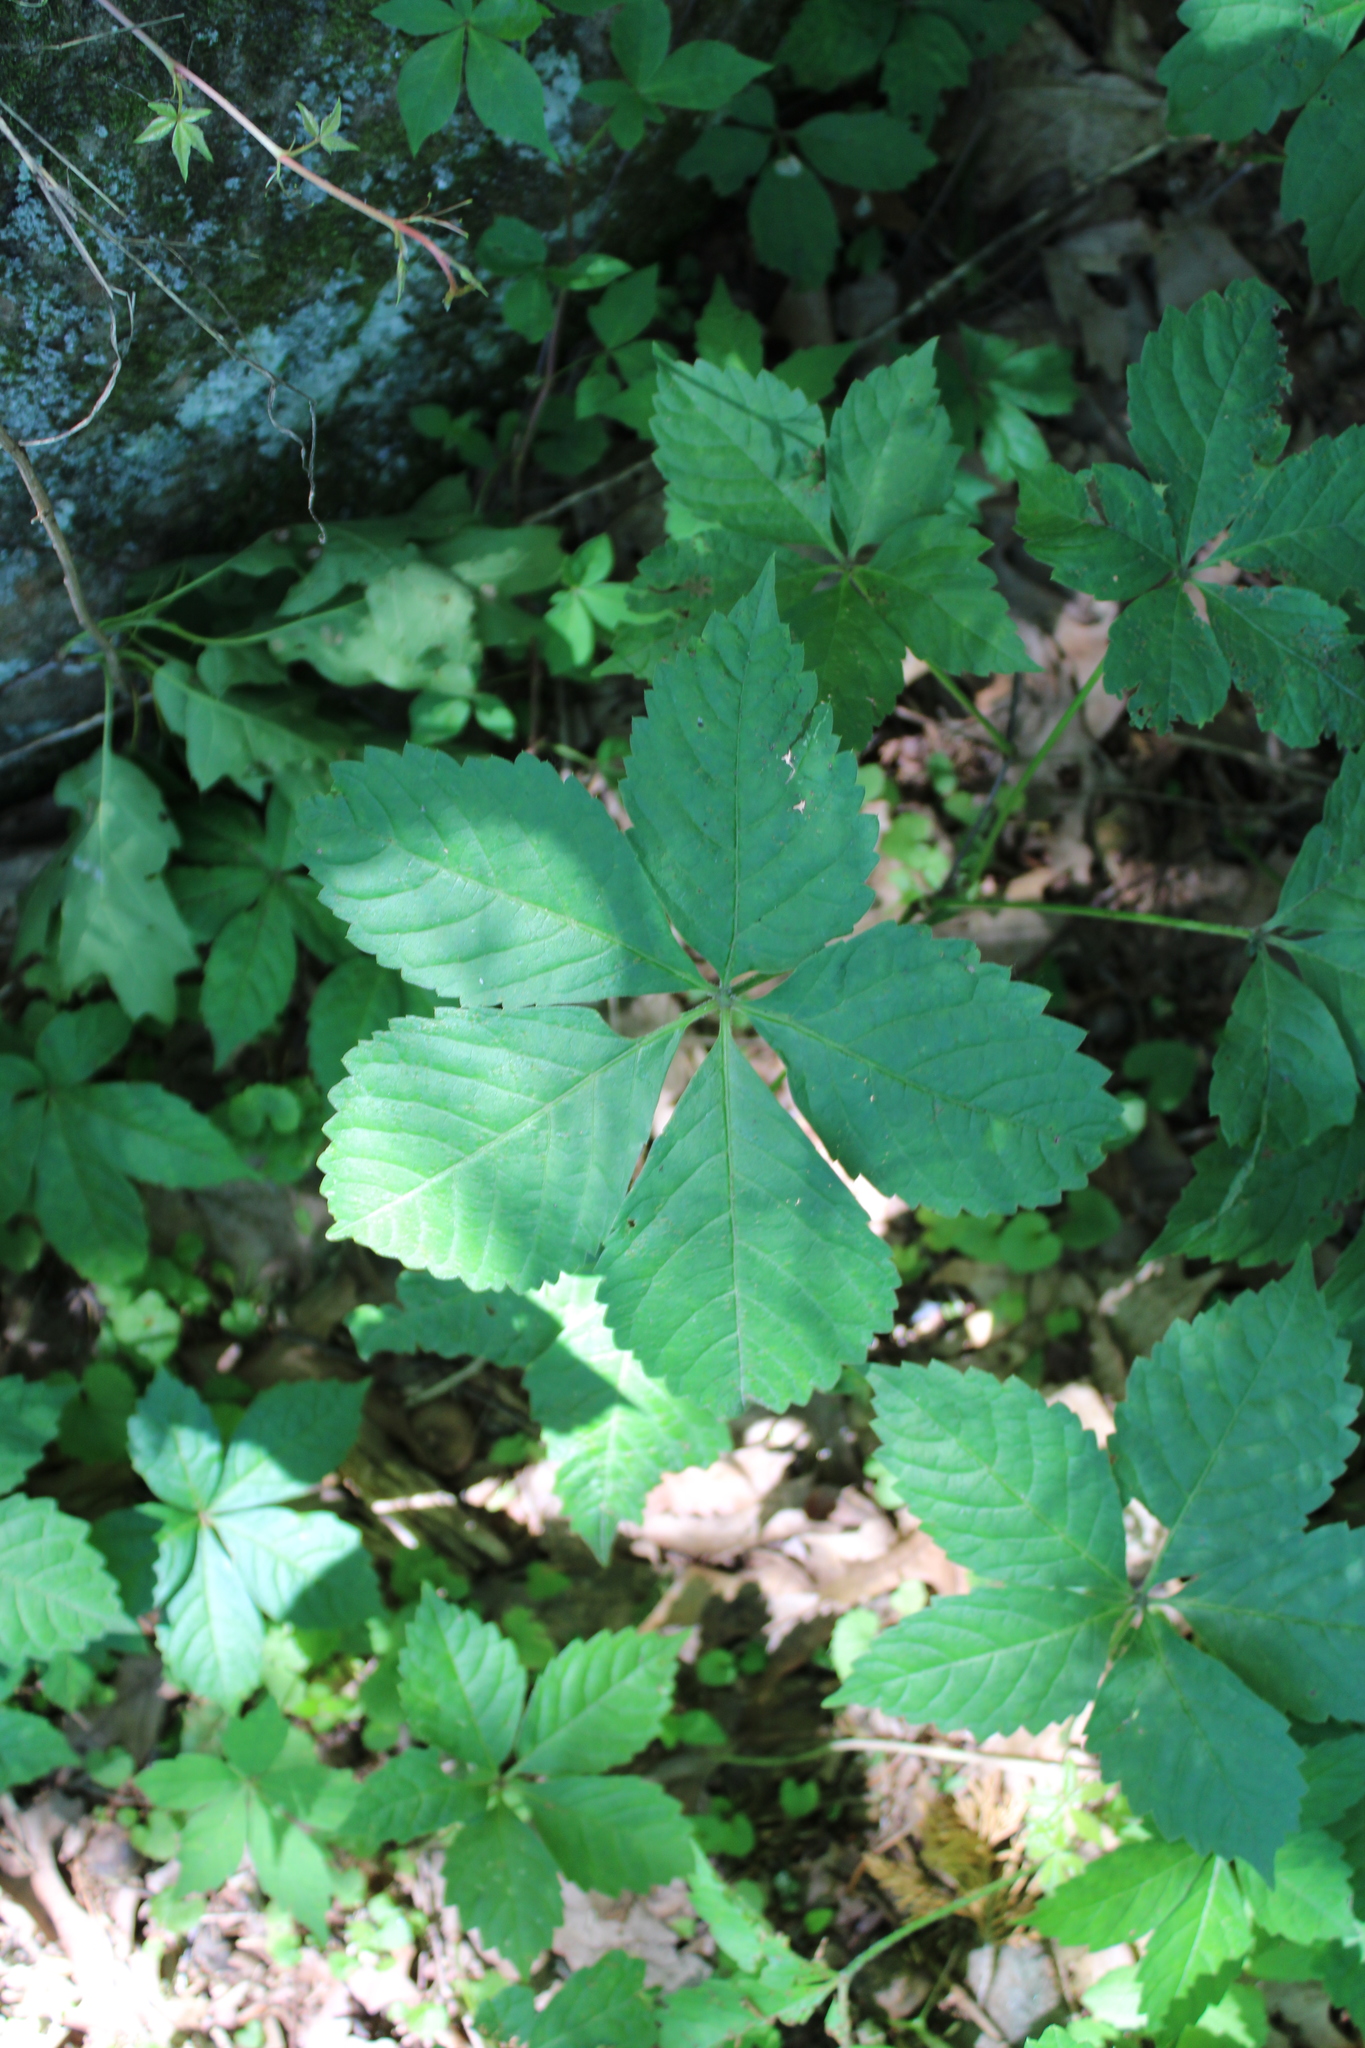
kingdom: Plantae
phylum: Tracheophyta
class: Magnoliopsida
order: Vitales
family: Vitaceae
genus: Parthenocissus
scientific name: Parthenocissus quinquefolia
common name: Virginia-creeper
